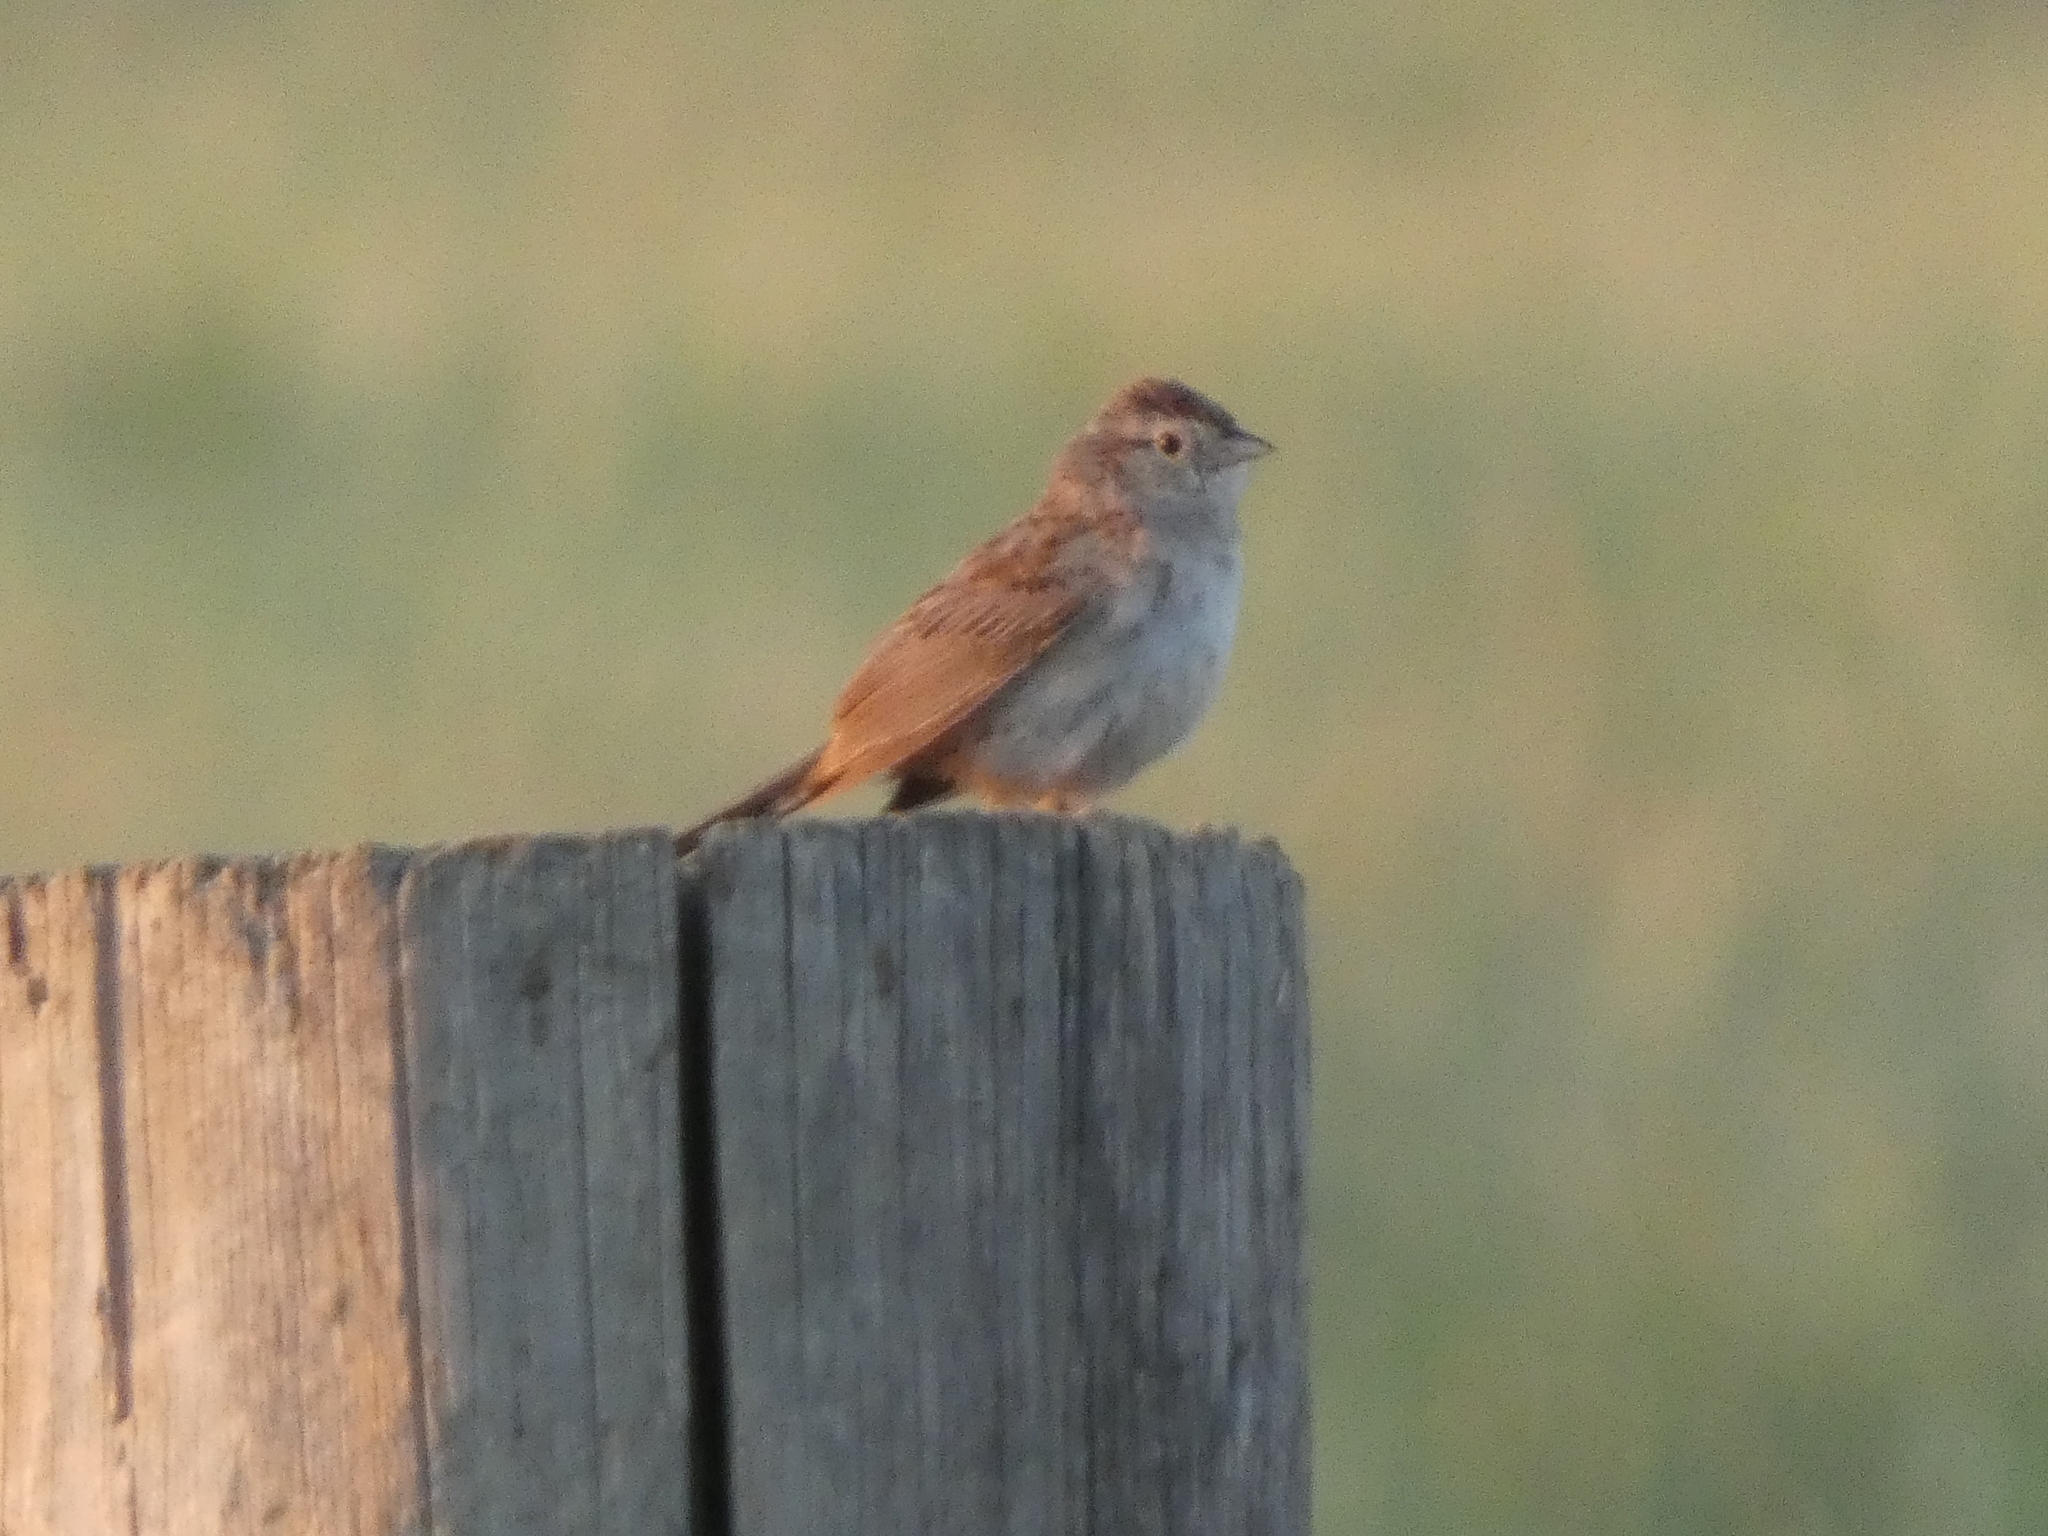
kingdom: Animalia
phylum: Chordata
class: Aves
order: Passeriformes
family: Passerellidae
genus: Peucaea
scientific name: Peucaea cassinii
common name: Cassin's sparrow
